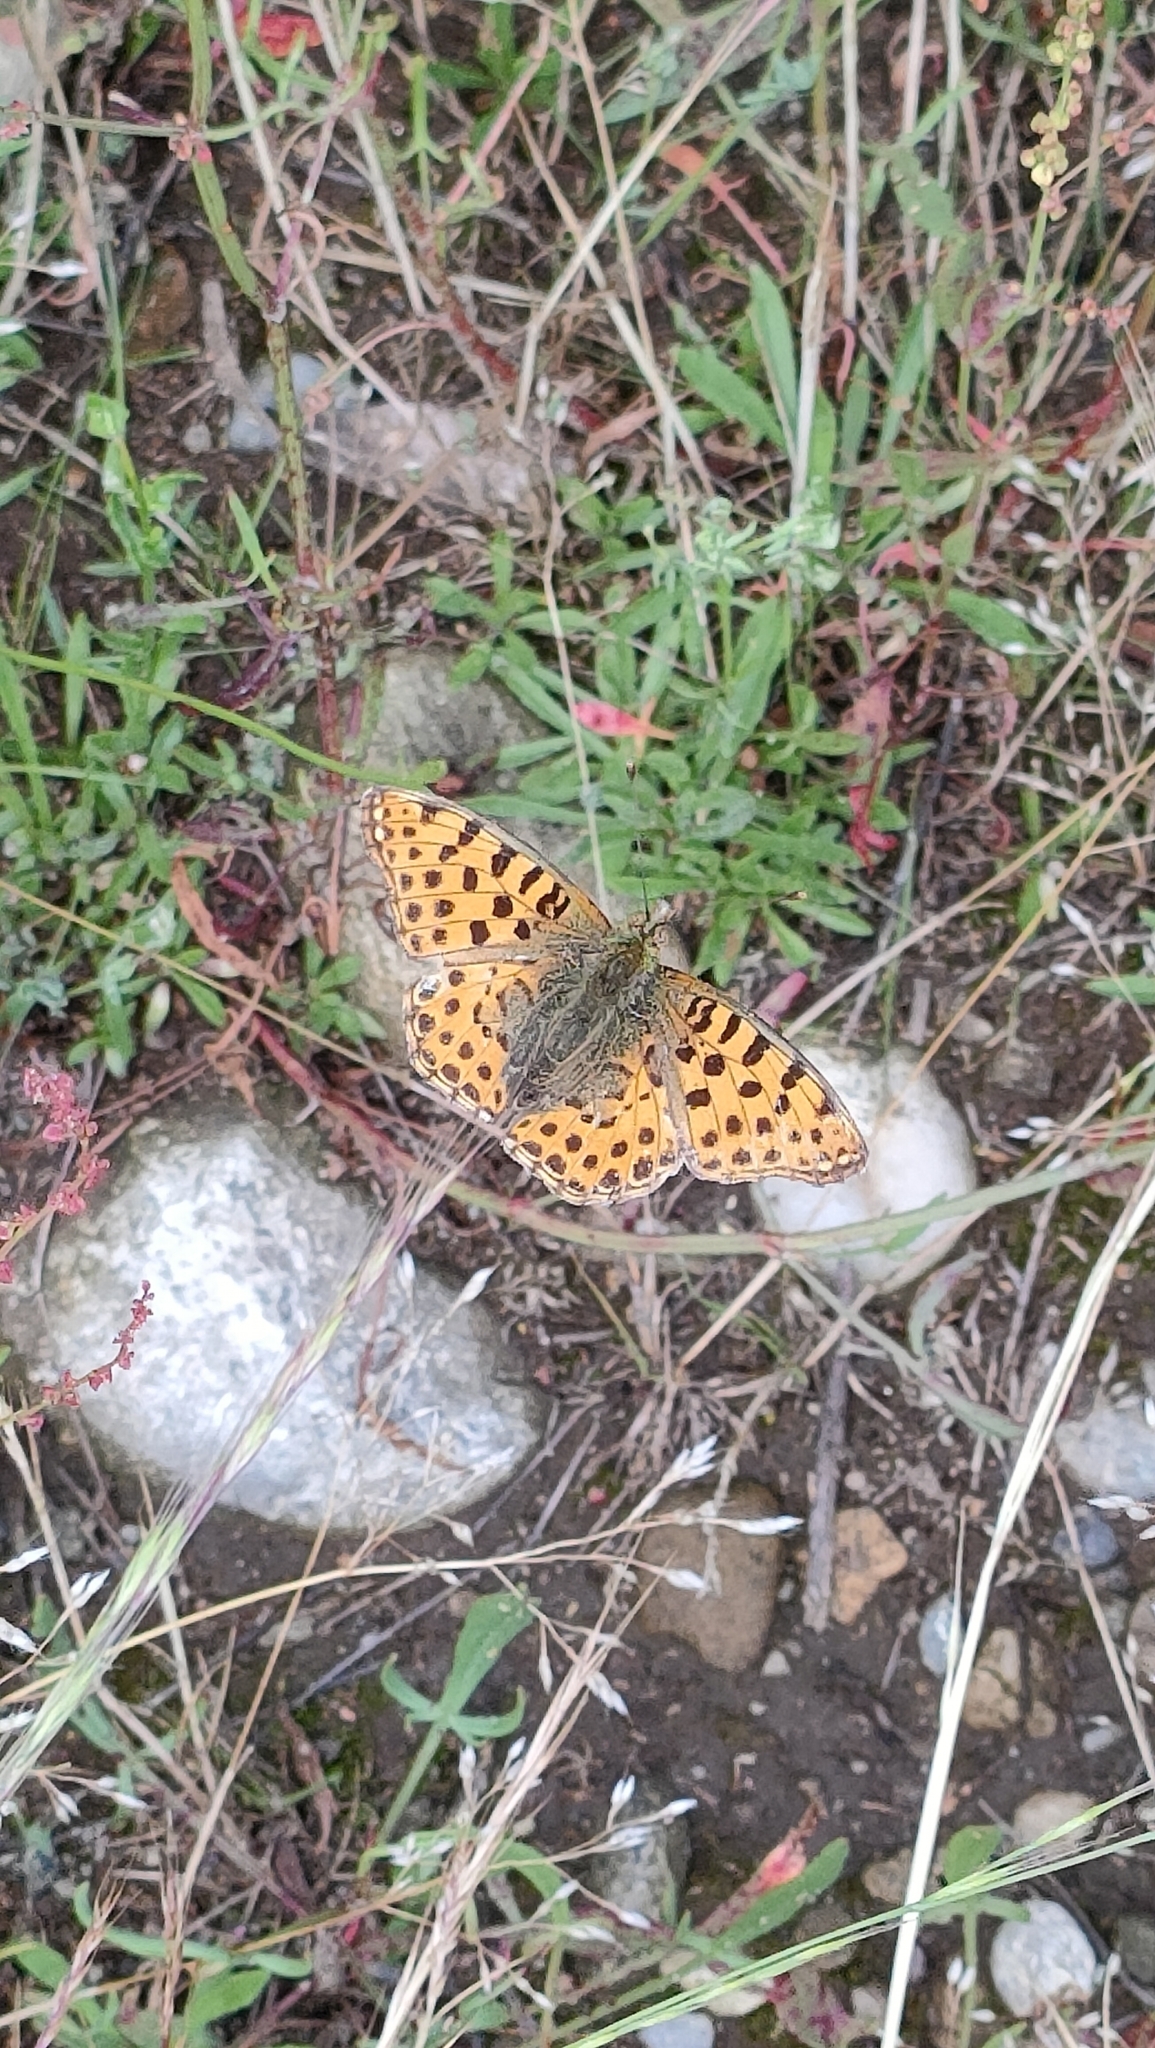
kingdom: Animalia
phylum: Arthropoda
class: Insecta
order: Lepidoptera
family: Nymphalidae
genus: Issoria
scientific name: Issoria lathonia
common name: Queen of spain fritillary
